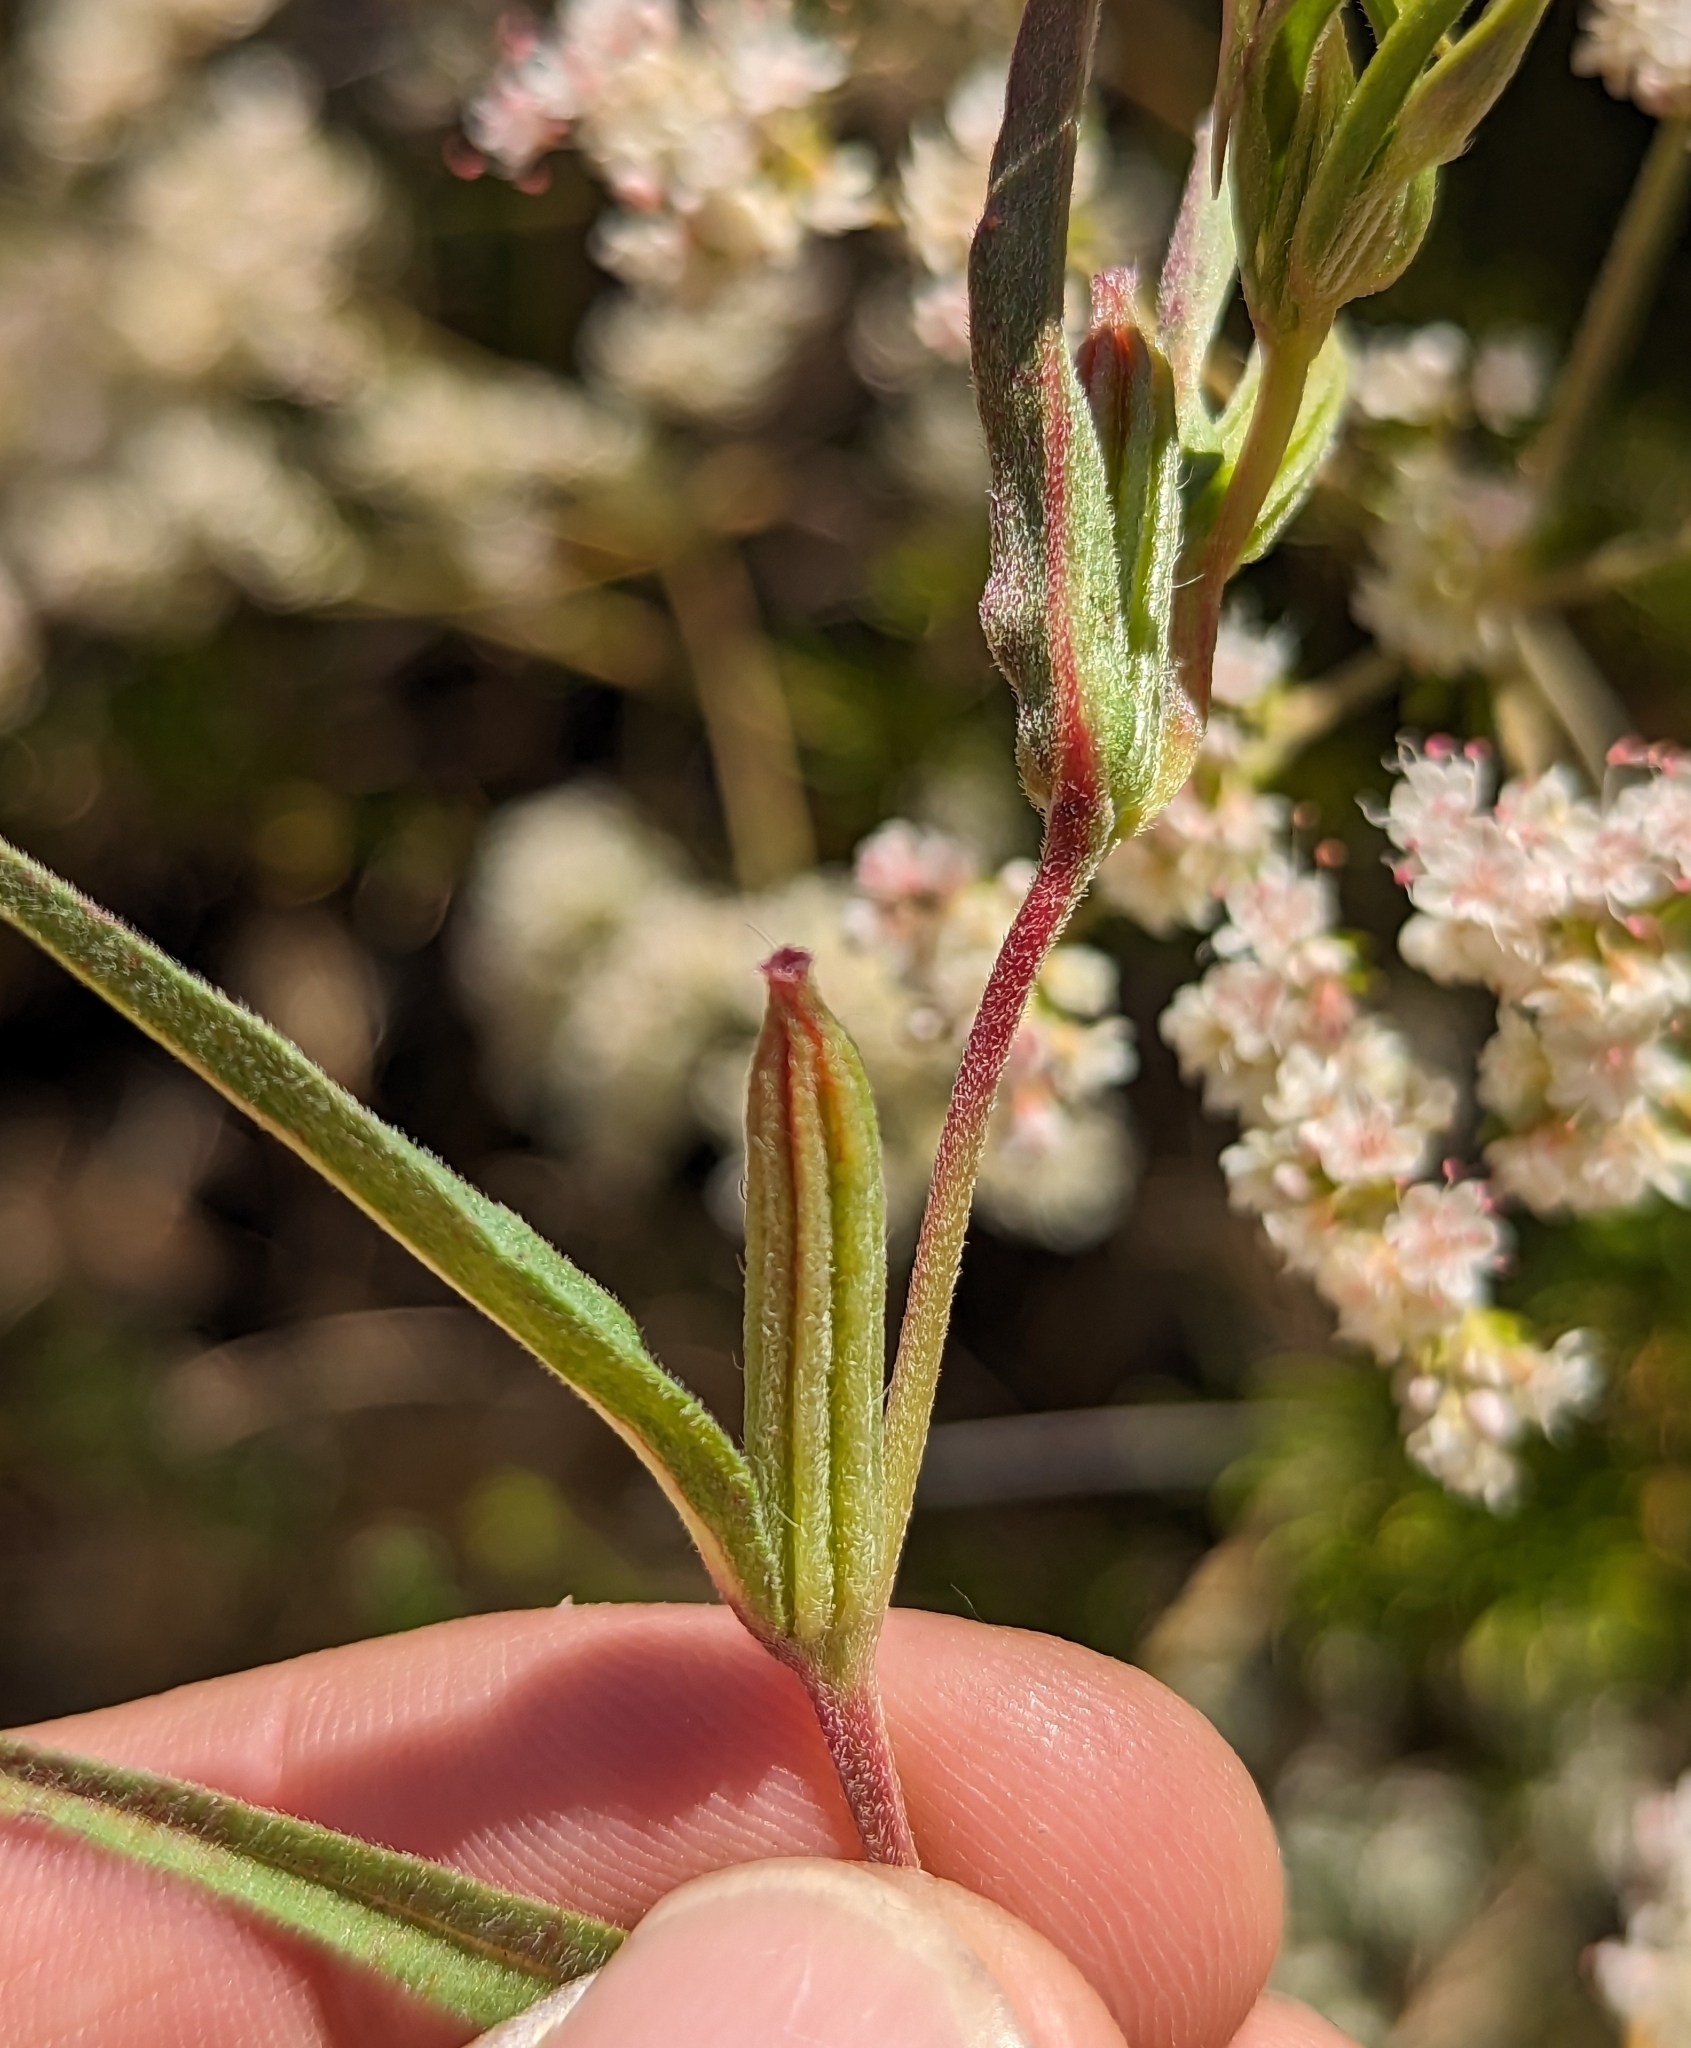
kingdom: Plantae
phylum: Tracheophyta
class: Magnoliopsida
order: Myrtales
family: Onagraceae
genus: Clarkia
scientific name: Clarkia purpurea
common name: Purple clarkia
